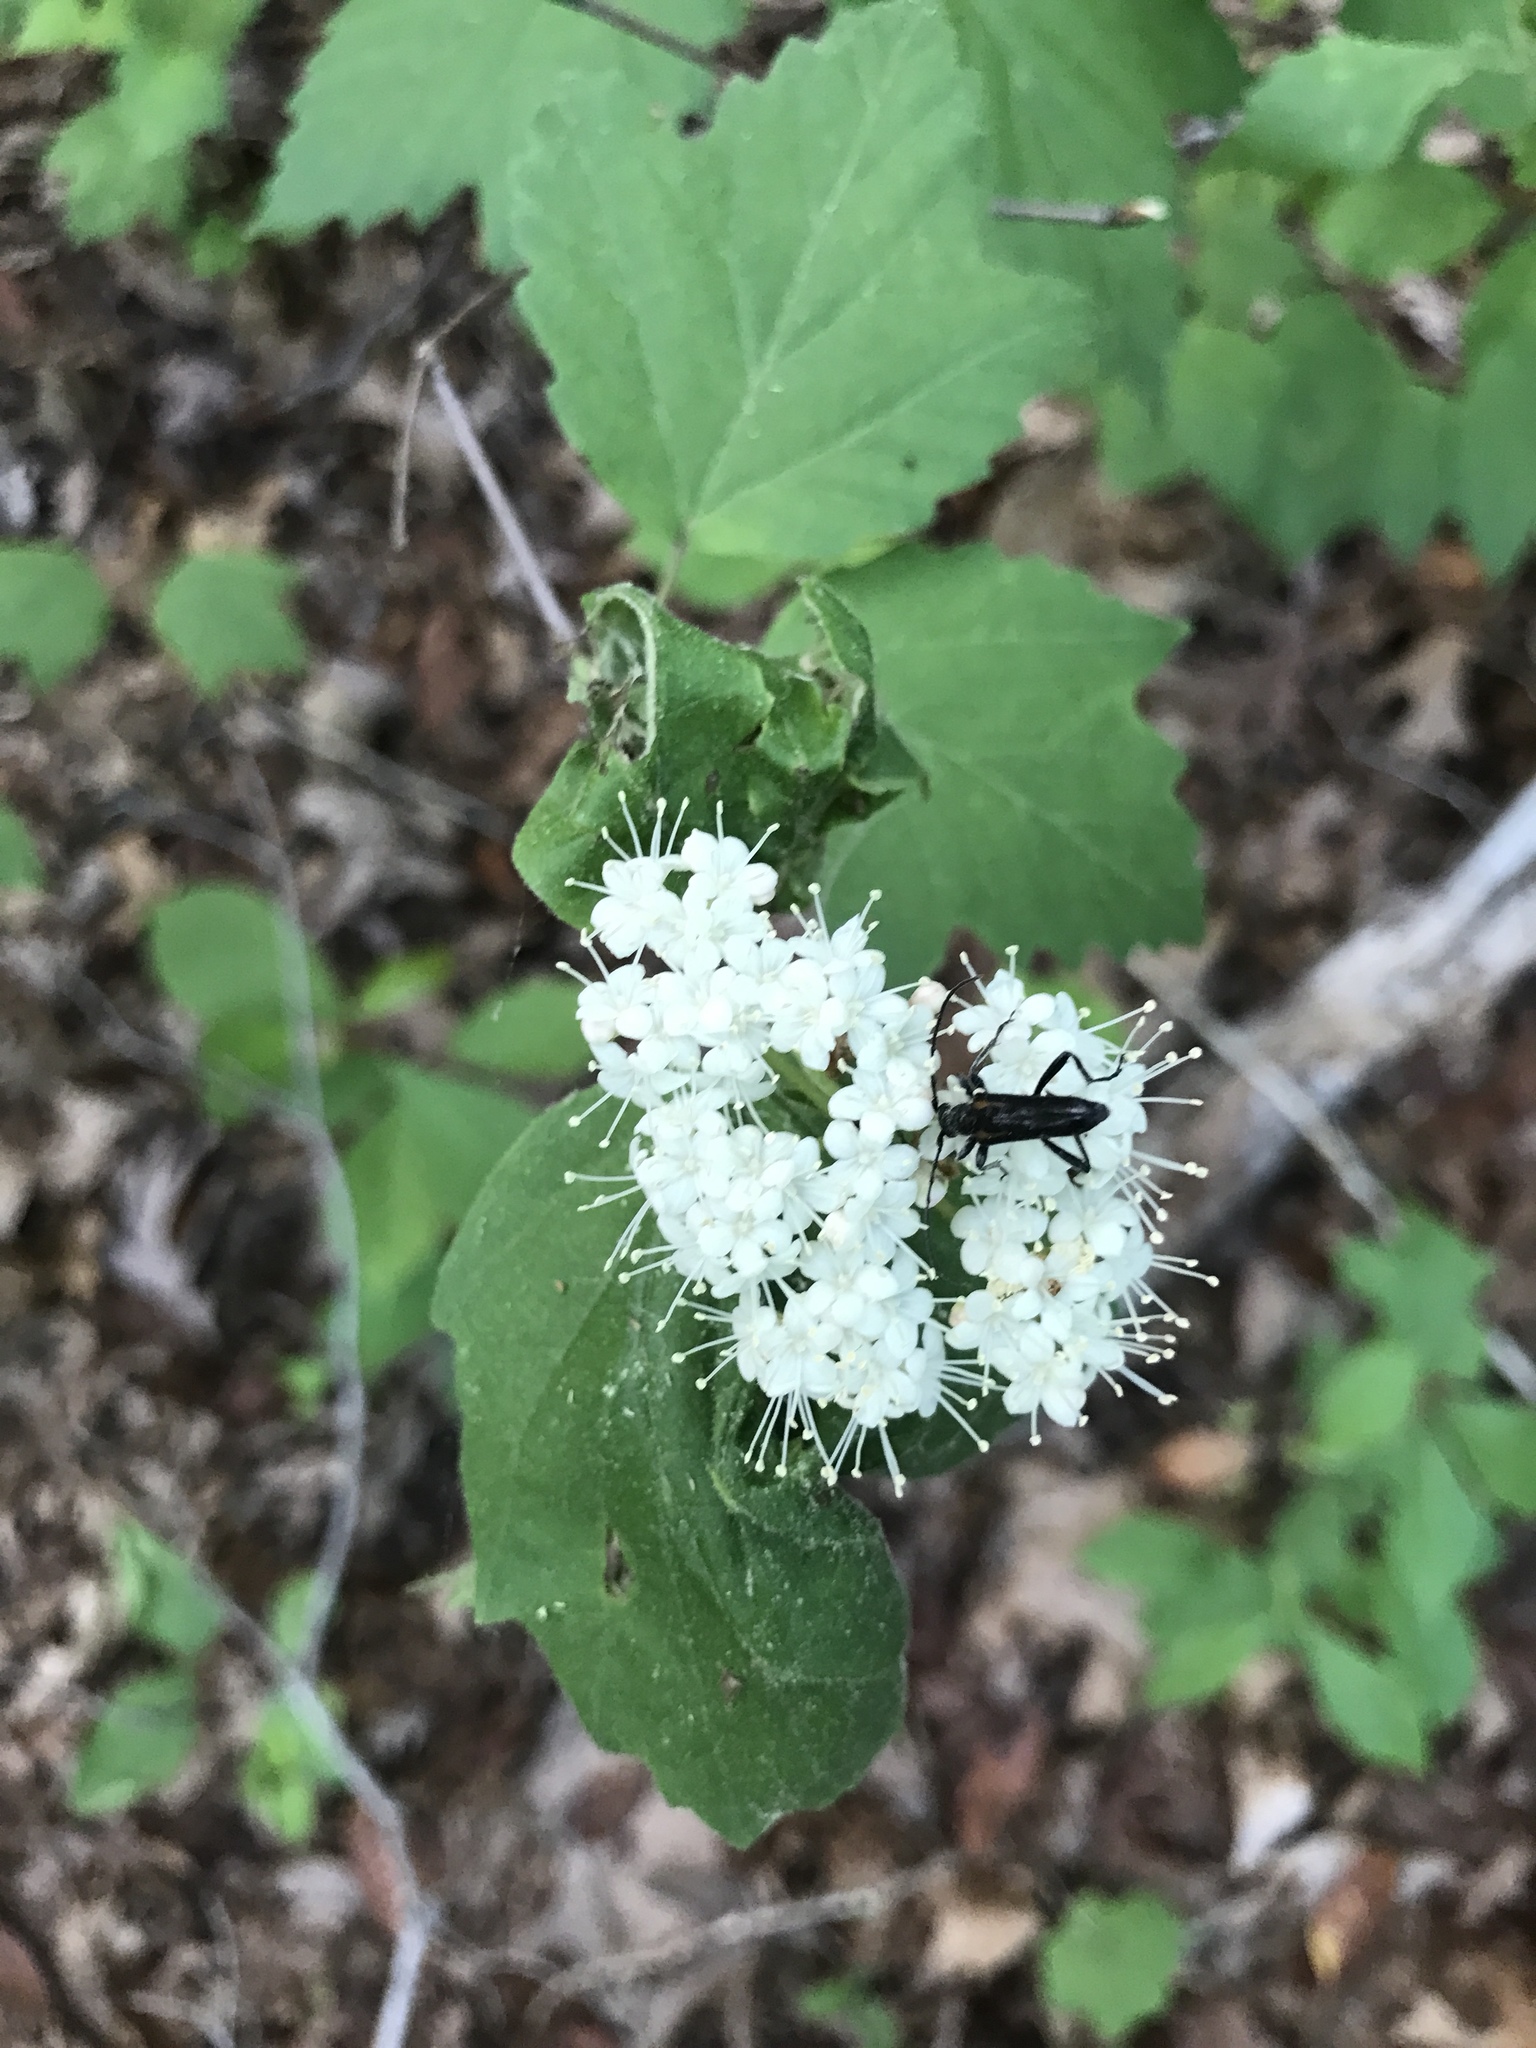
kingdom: Animalia
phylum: Arthropoda
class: Insecta
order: Coleoptera
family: Cerambycidae
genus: Strangalepta
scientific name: Strangalepta abbreviata
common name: Strangalepta flower longhorn beetle
